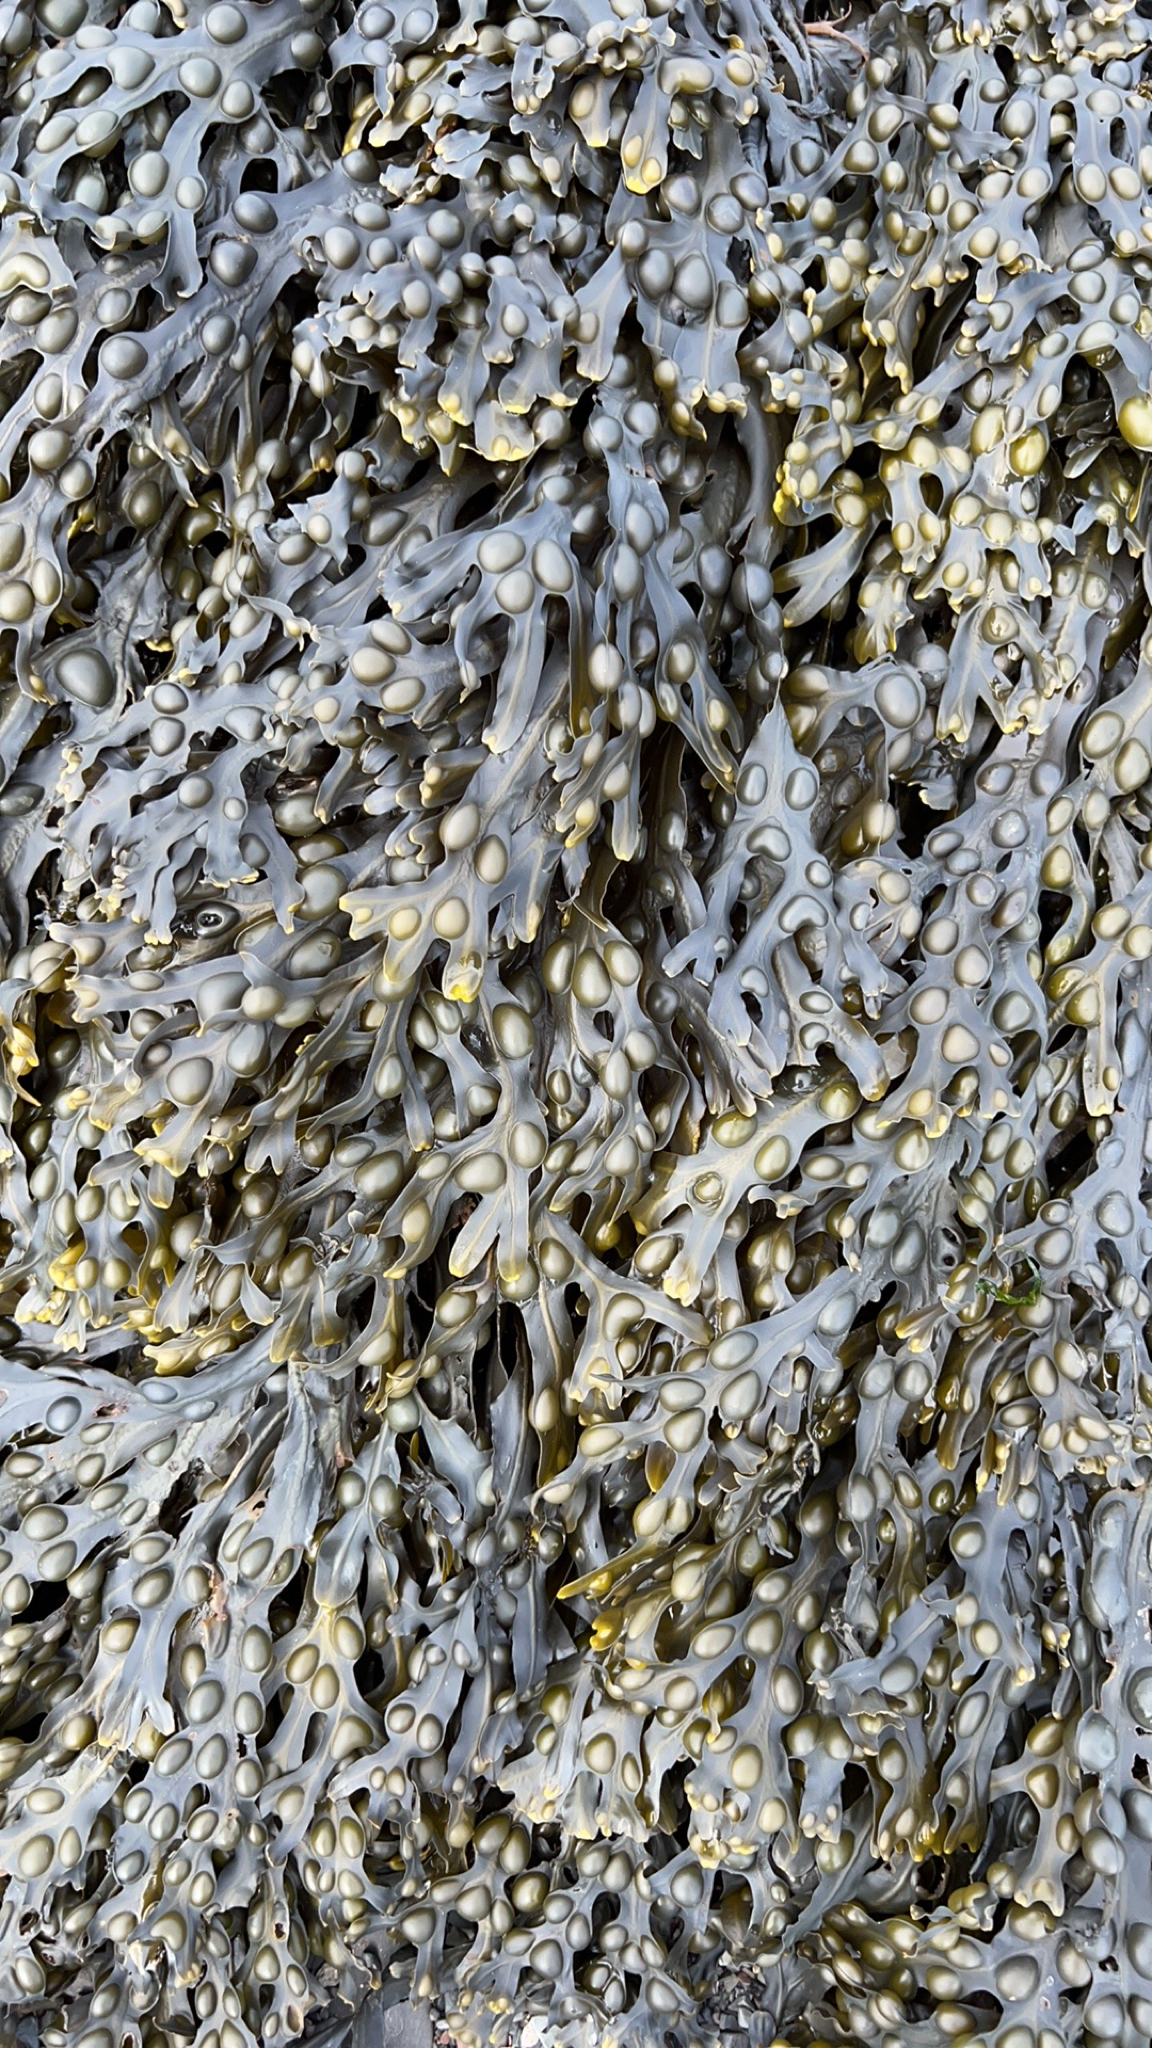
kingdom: Chromista
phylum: Ochrophyta
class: Phaeophyceae
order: Fucales
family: Fucaceae
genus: Fucus
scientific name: Fucus vesiculosus
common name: Bladder wrack
